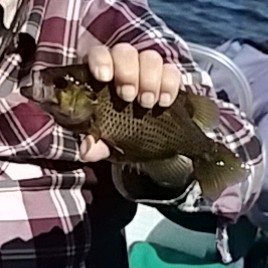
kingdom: Animalia
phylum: Chordata
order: Perciformes
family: Centrarchidae
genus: Ambloplites
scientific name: Ambloplites rupestris
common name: Rock bass
